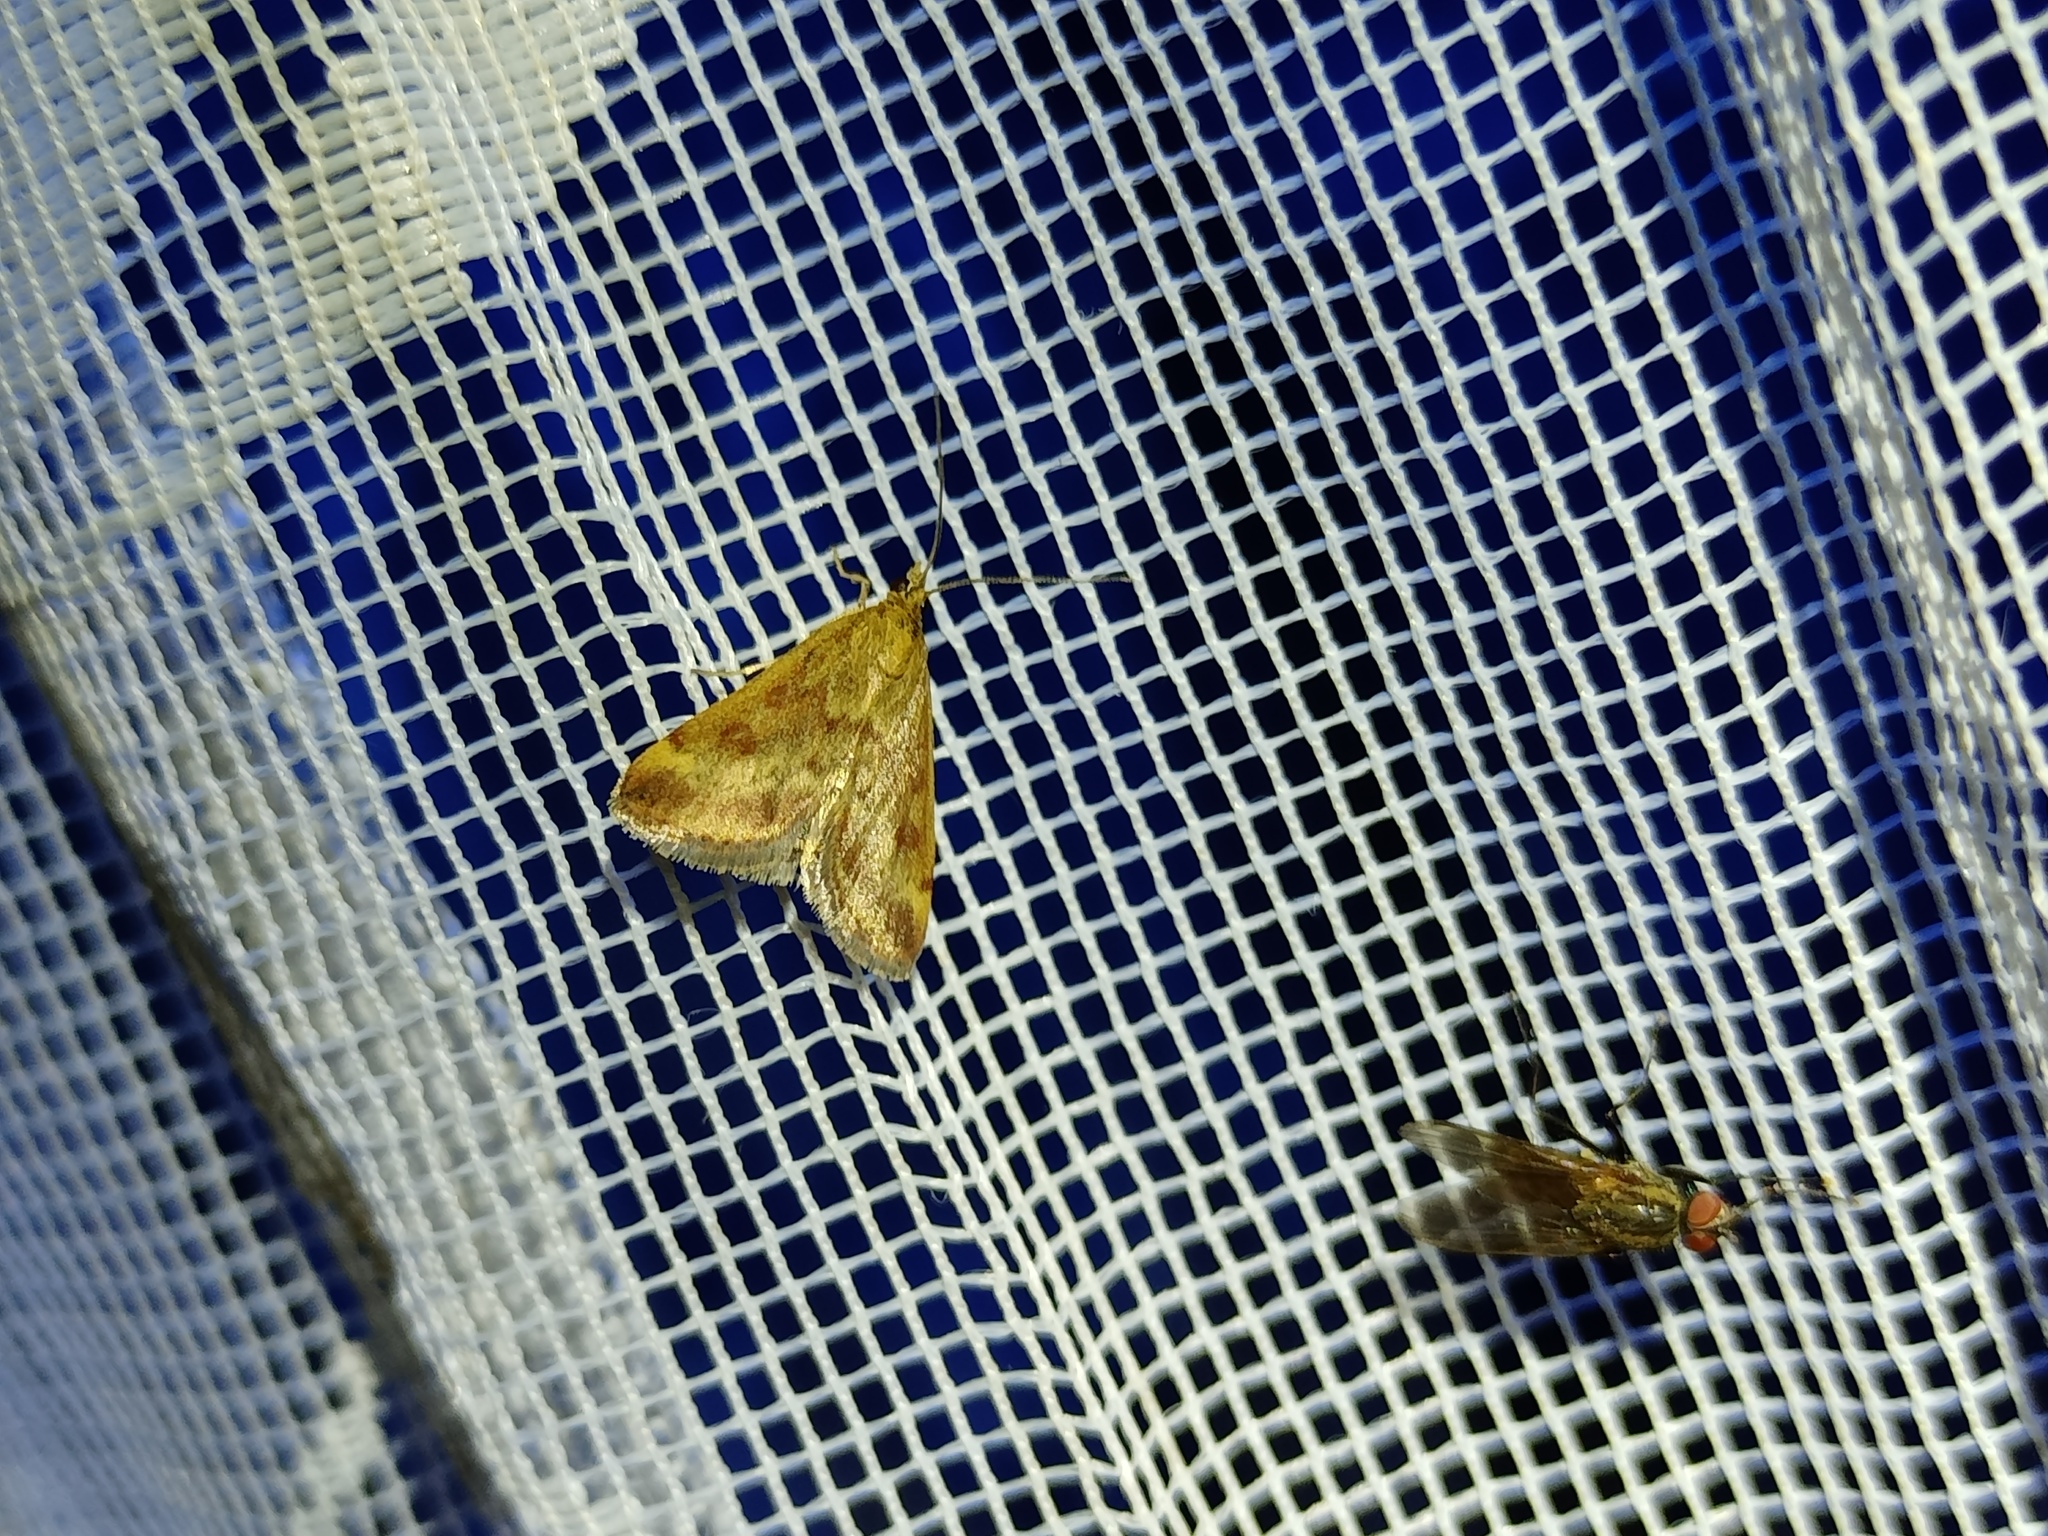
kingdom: Animalia
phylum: Arthropoda
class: Insecta
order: Lepidoptera
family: Crambidae
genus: Pyrausta
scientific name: Pyrausta despicata
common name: Straw-barred pearl
